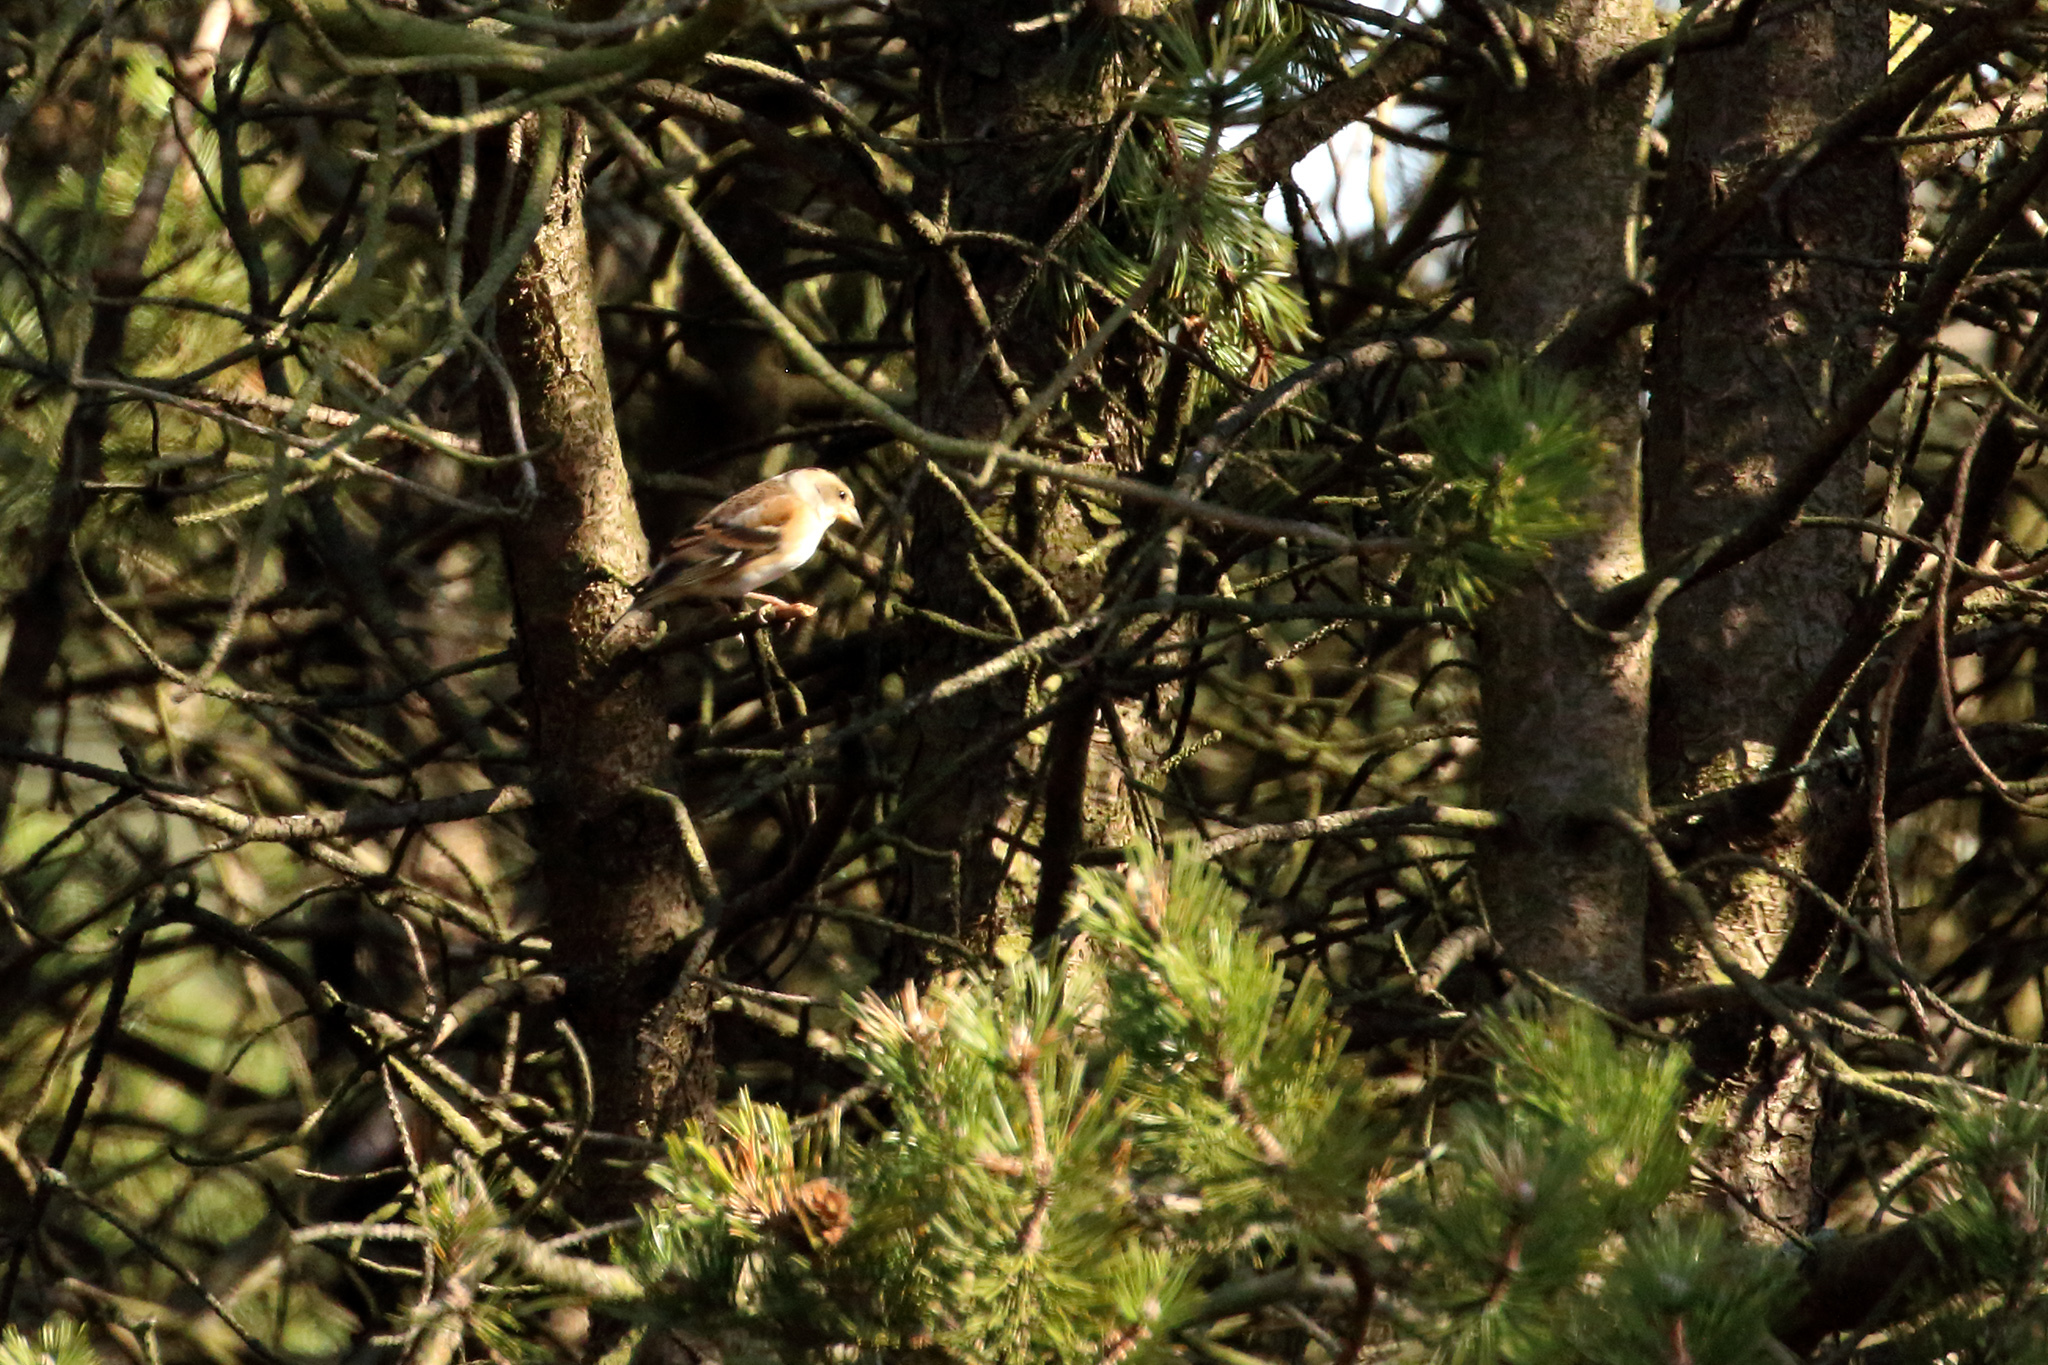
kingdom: Animalia
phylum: Chordata
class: Aves
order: Passeriformes
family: Fringillidae
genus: Fringilla
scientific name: Fringilla montifringilla
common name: Brambling
